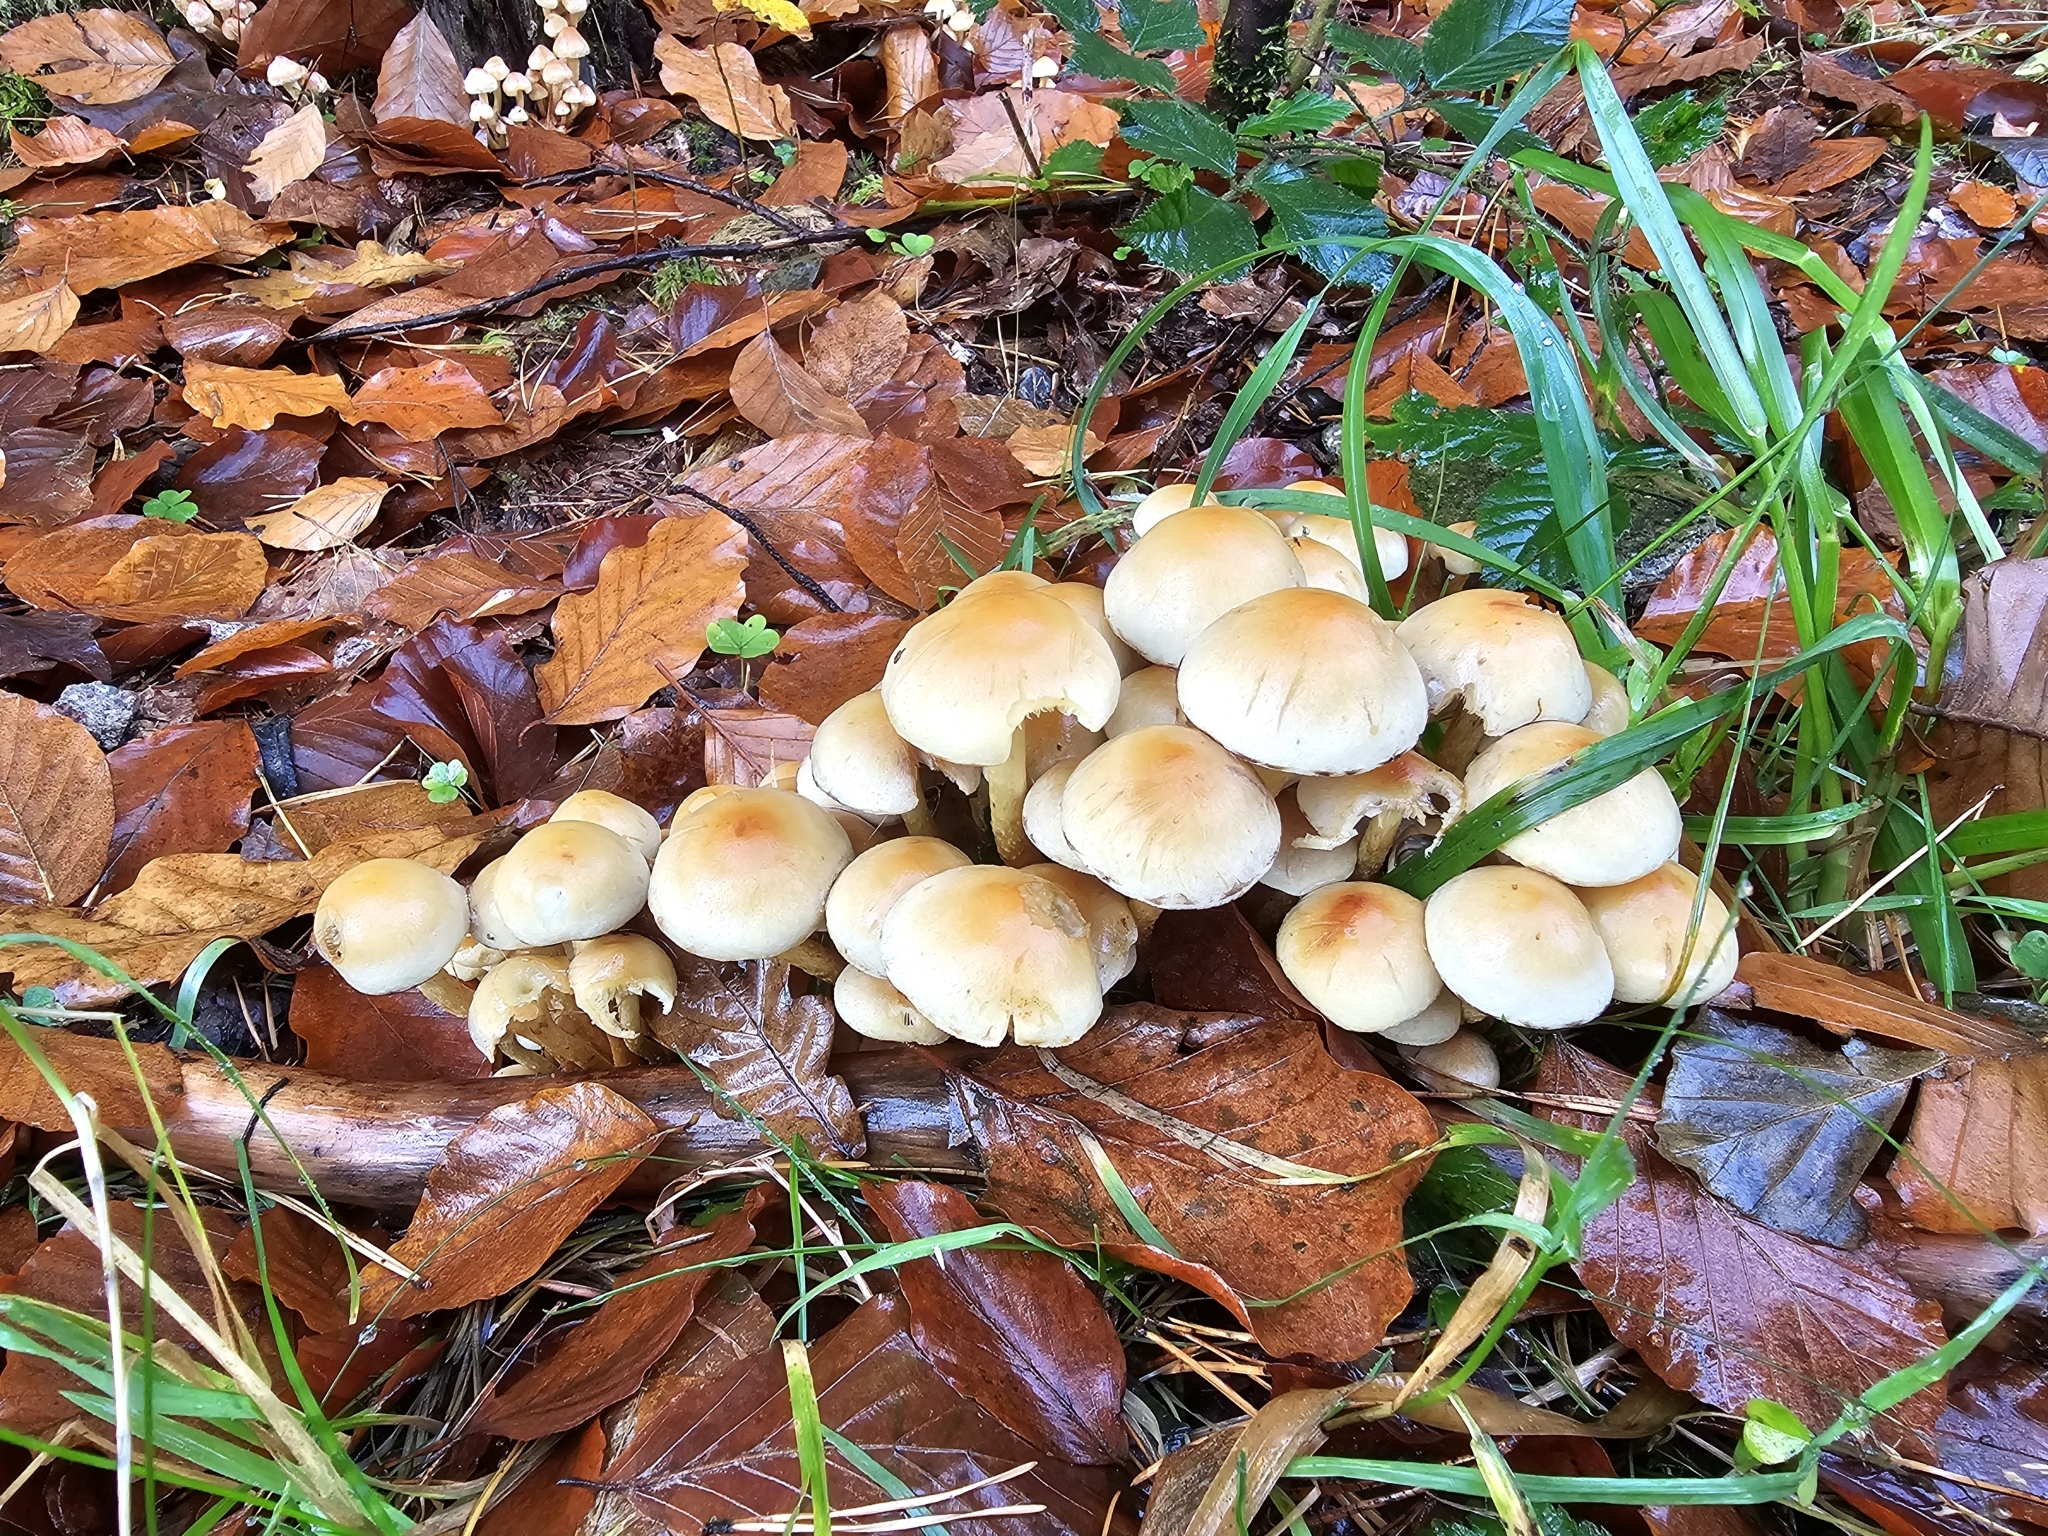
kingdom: Fungi
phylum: Basidiomycota
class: Agaricomycetes
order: Agaricales
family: Strophariaceae
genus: Hypholoma
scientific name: Hypholoma fasciculare
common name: Sulphur tuft
